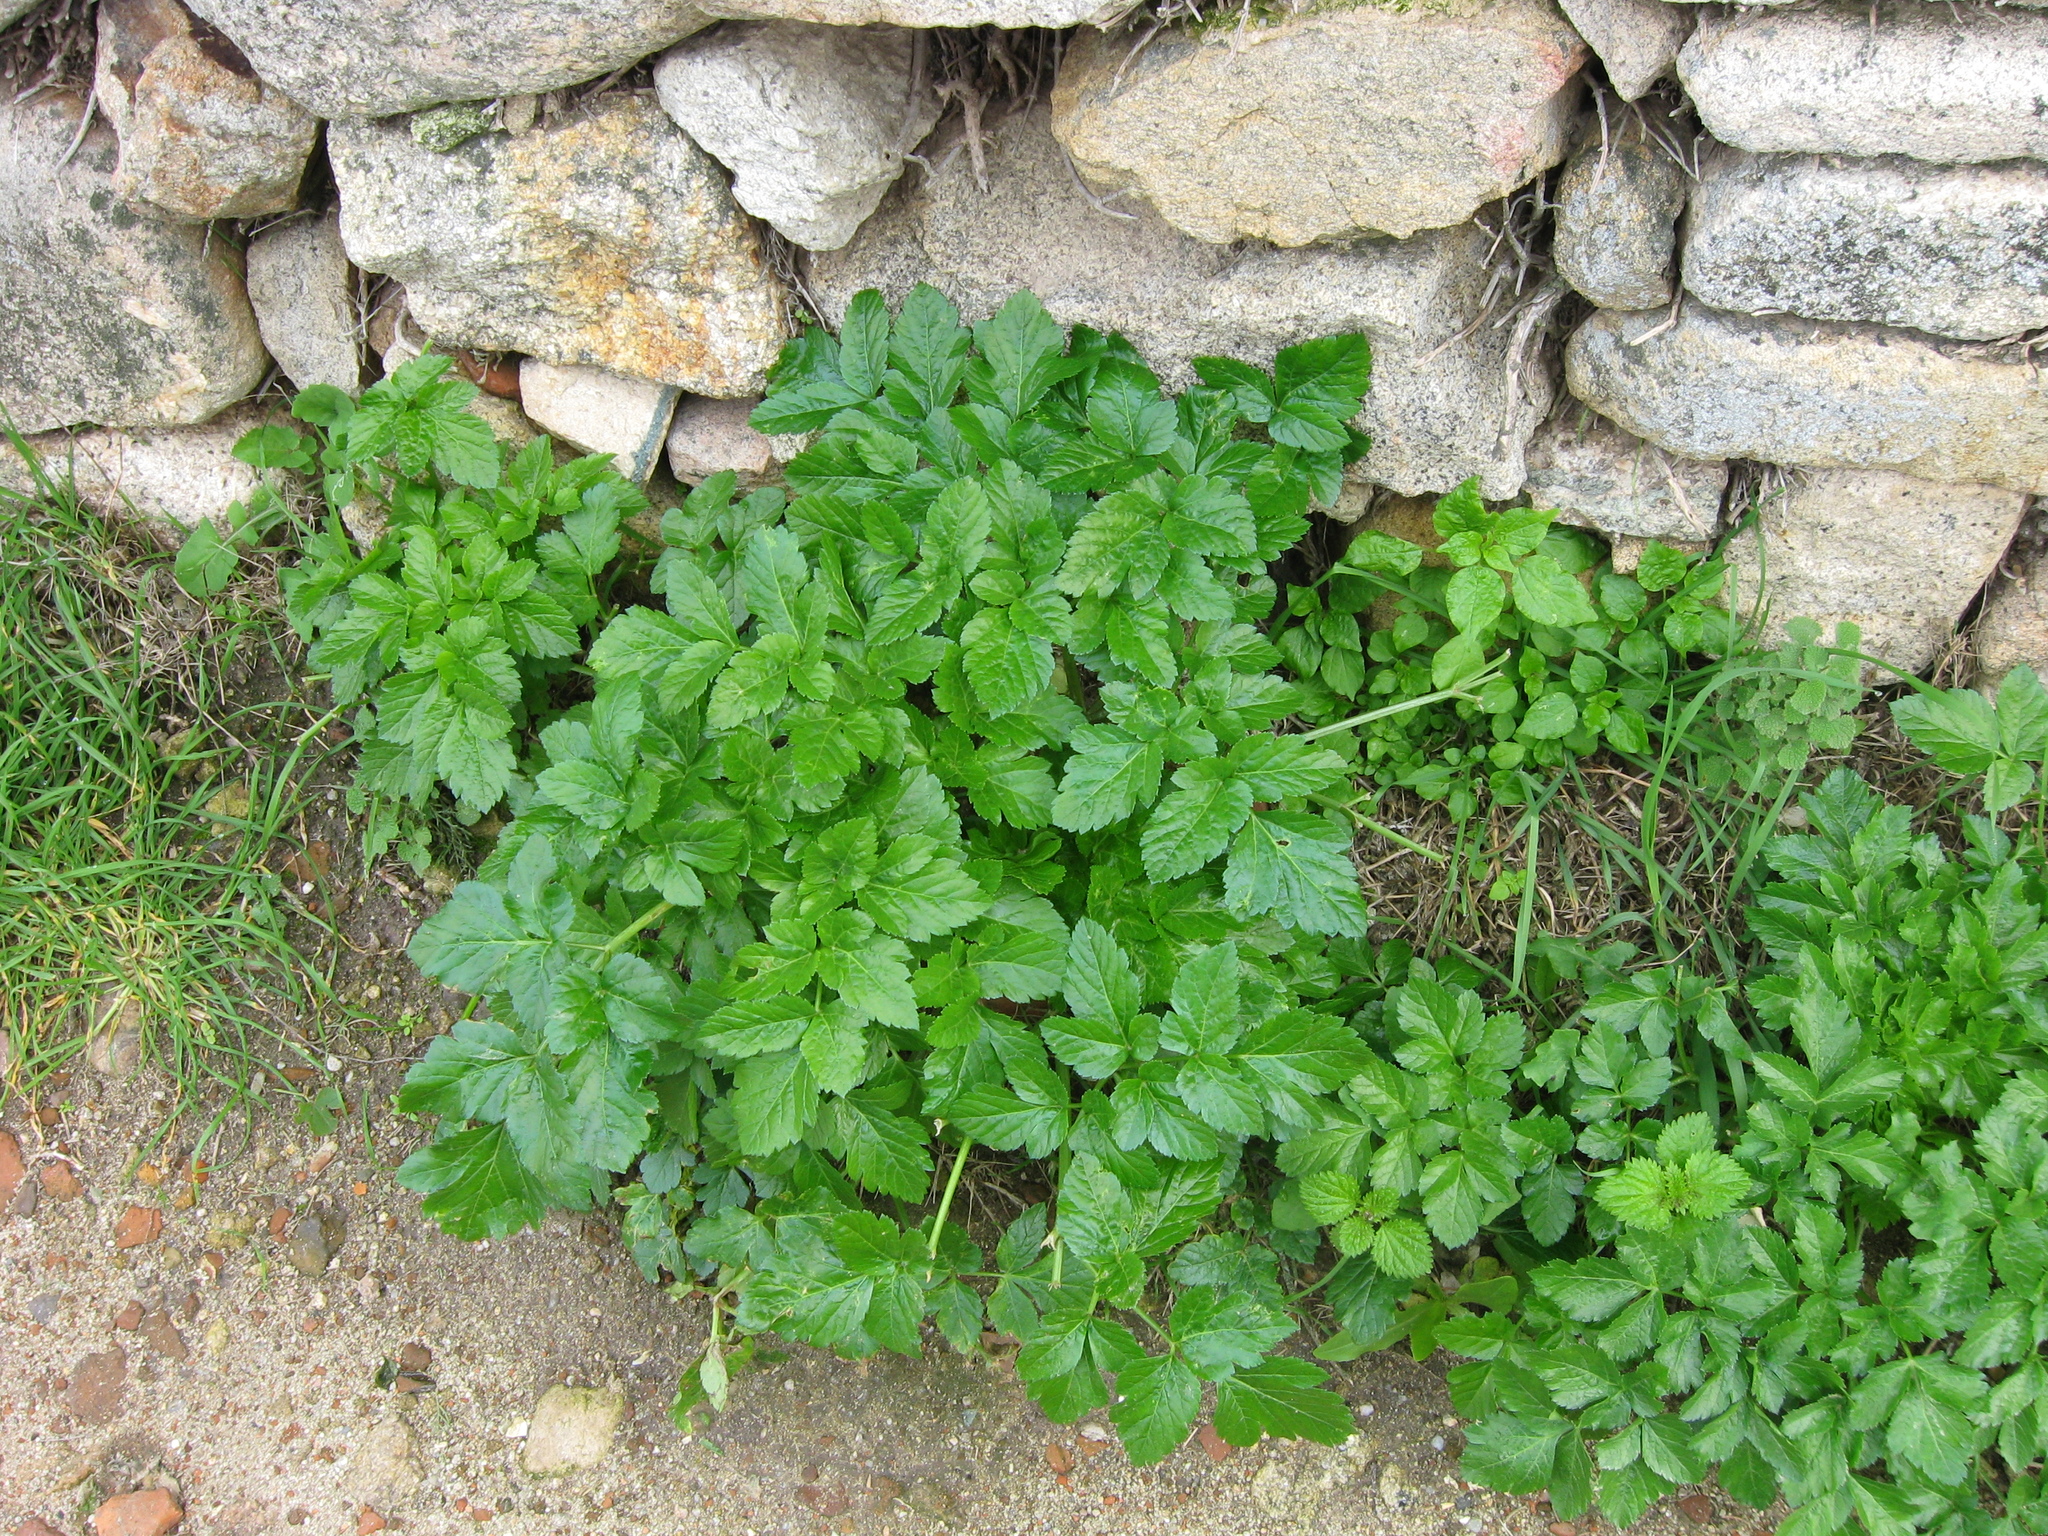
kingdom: Plantae
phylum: Tracheophyta
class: Magnoliopsida
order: Apiales
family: Apiaceae
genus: Smyrnium
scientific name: Smyrnium olusatrum
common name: Alexanders
